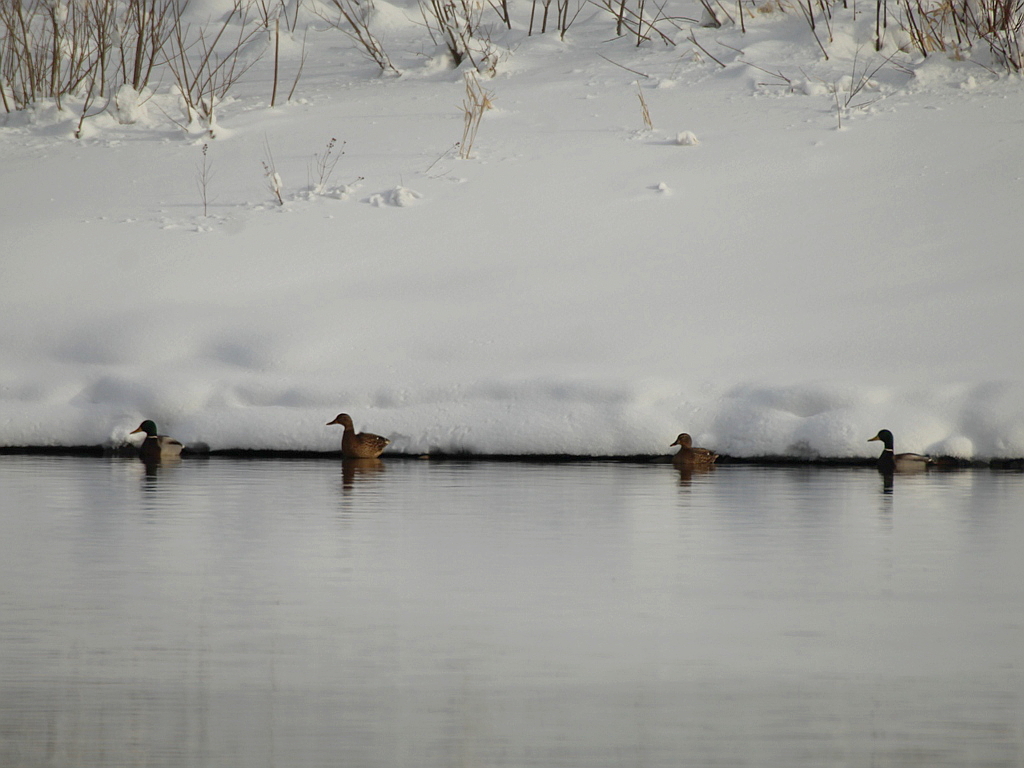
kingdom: Animalia
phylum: Chordata
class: Aves
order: Anseriformes
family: Anatidae
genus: Anas
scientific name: Anas platyrhynchos
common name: Mallard
